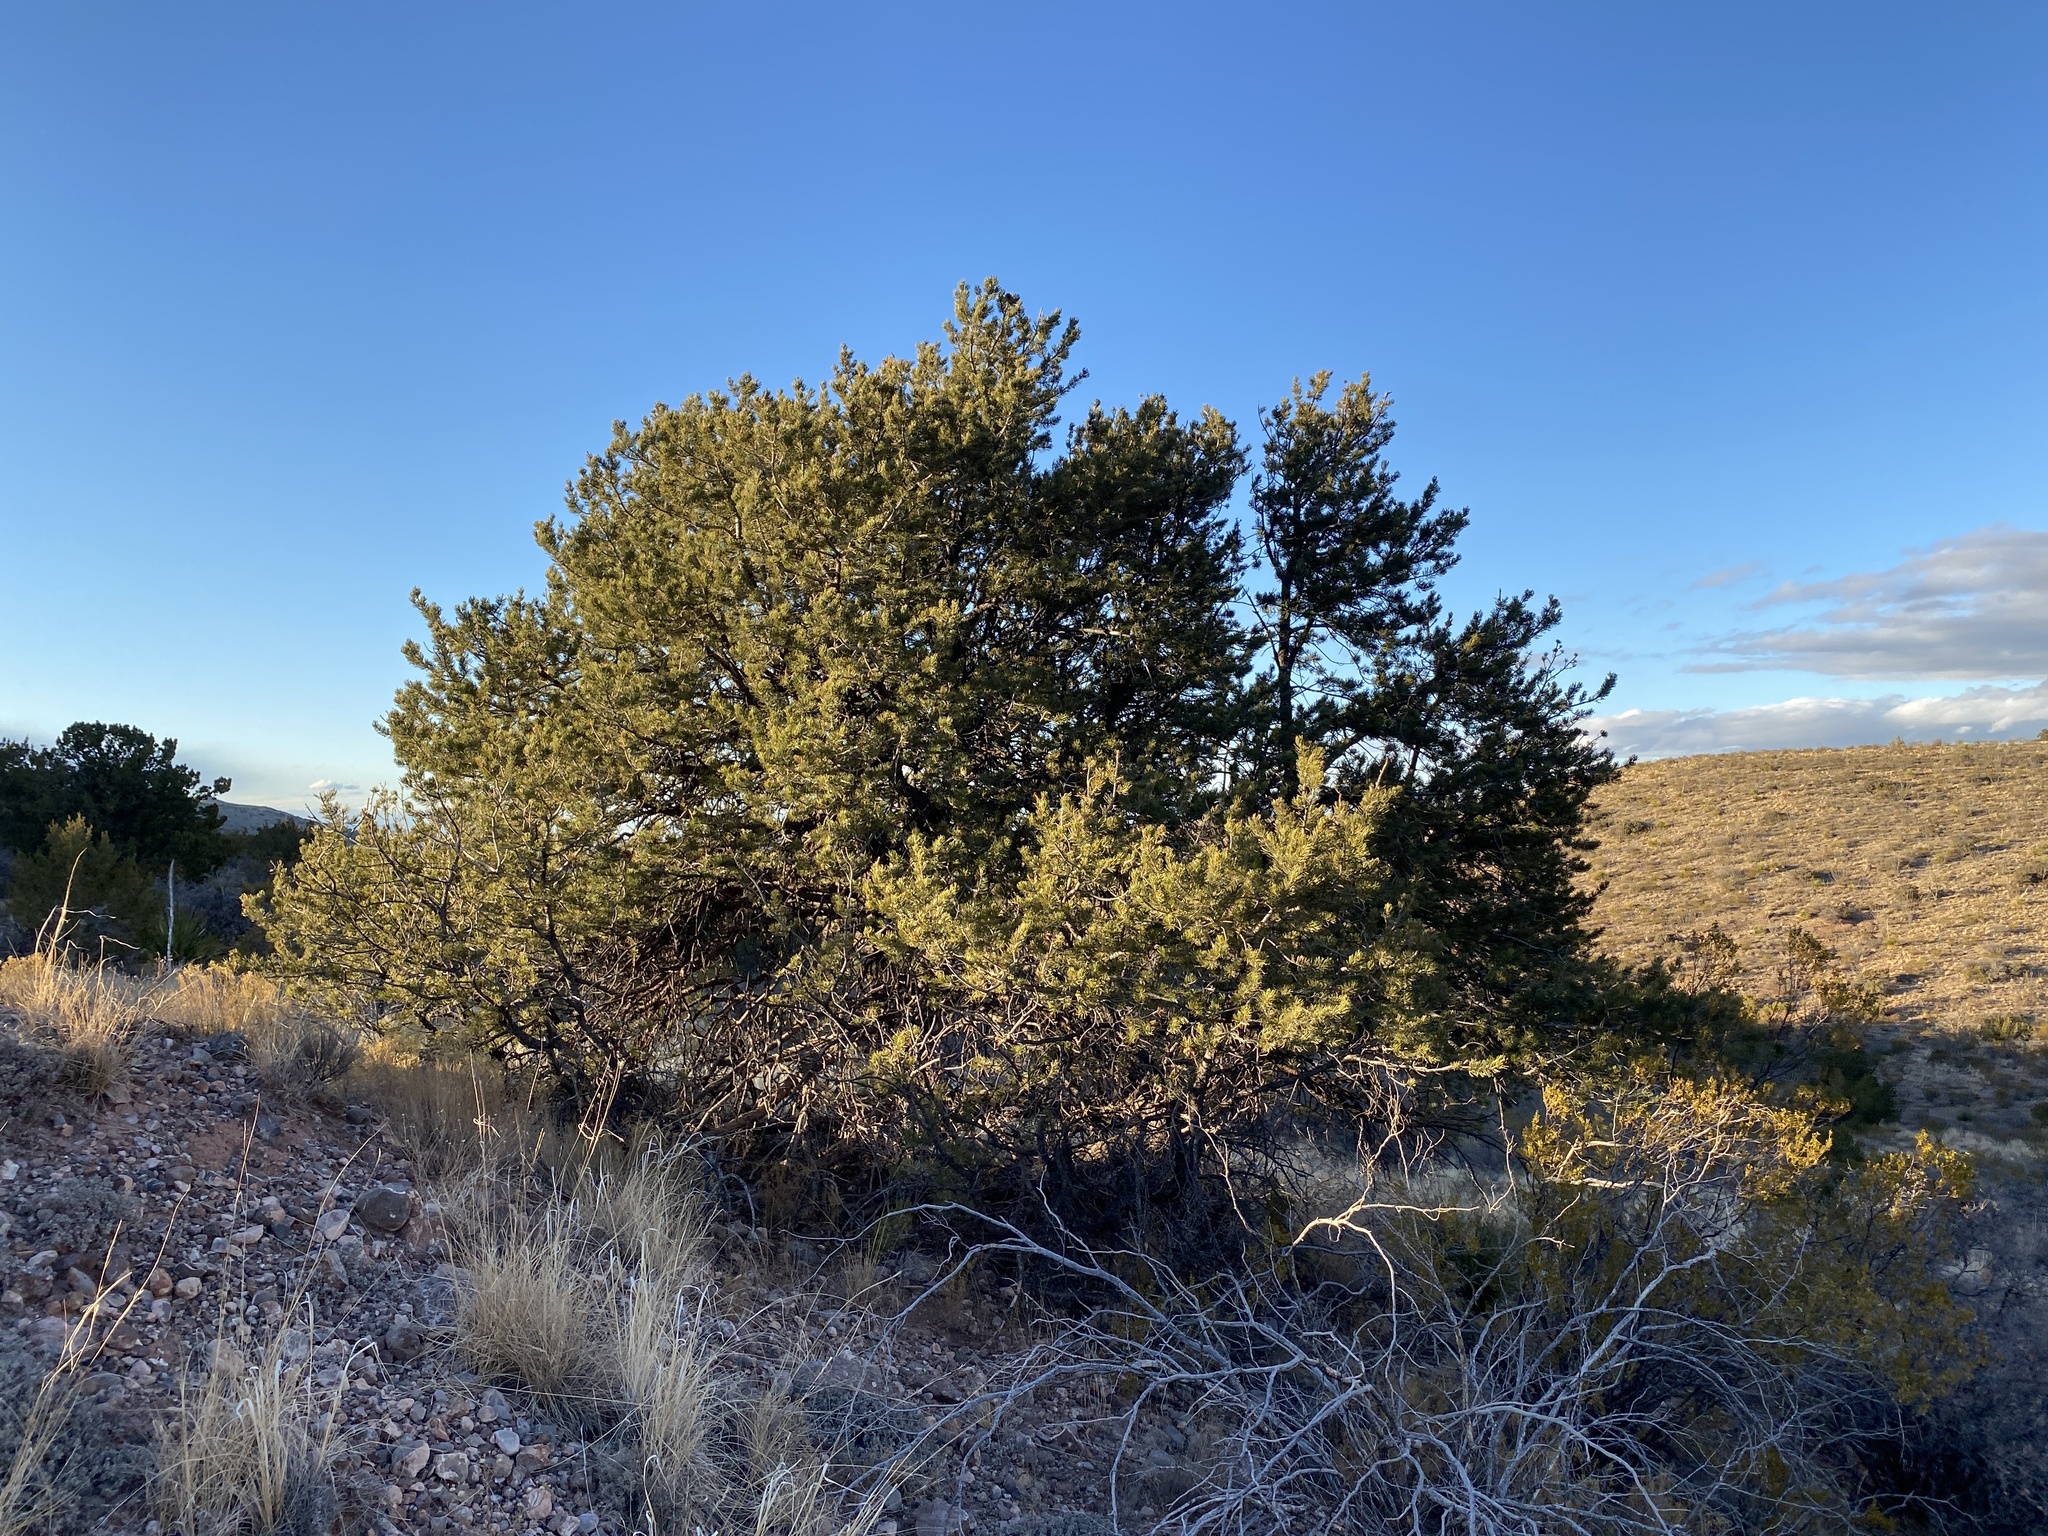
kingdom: Plantae
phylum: Tracheophyta
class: Pinopsida
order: Pinales
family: Pinaceae
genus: Pinus
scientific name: Pinus edulis
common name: Colorado pinyon
